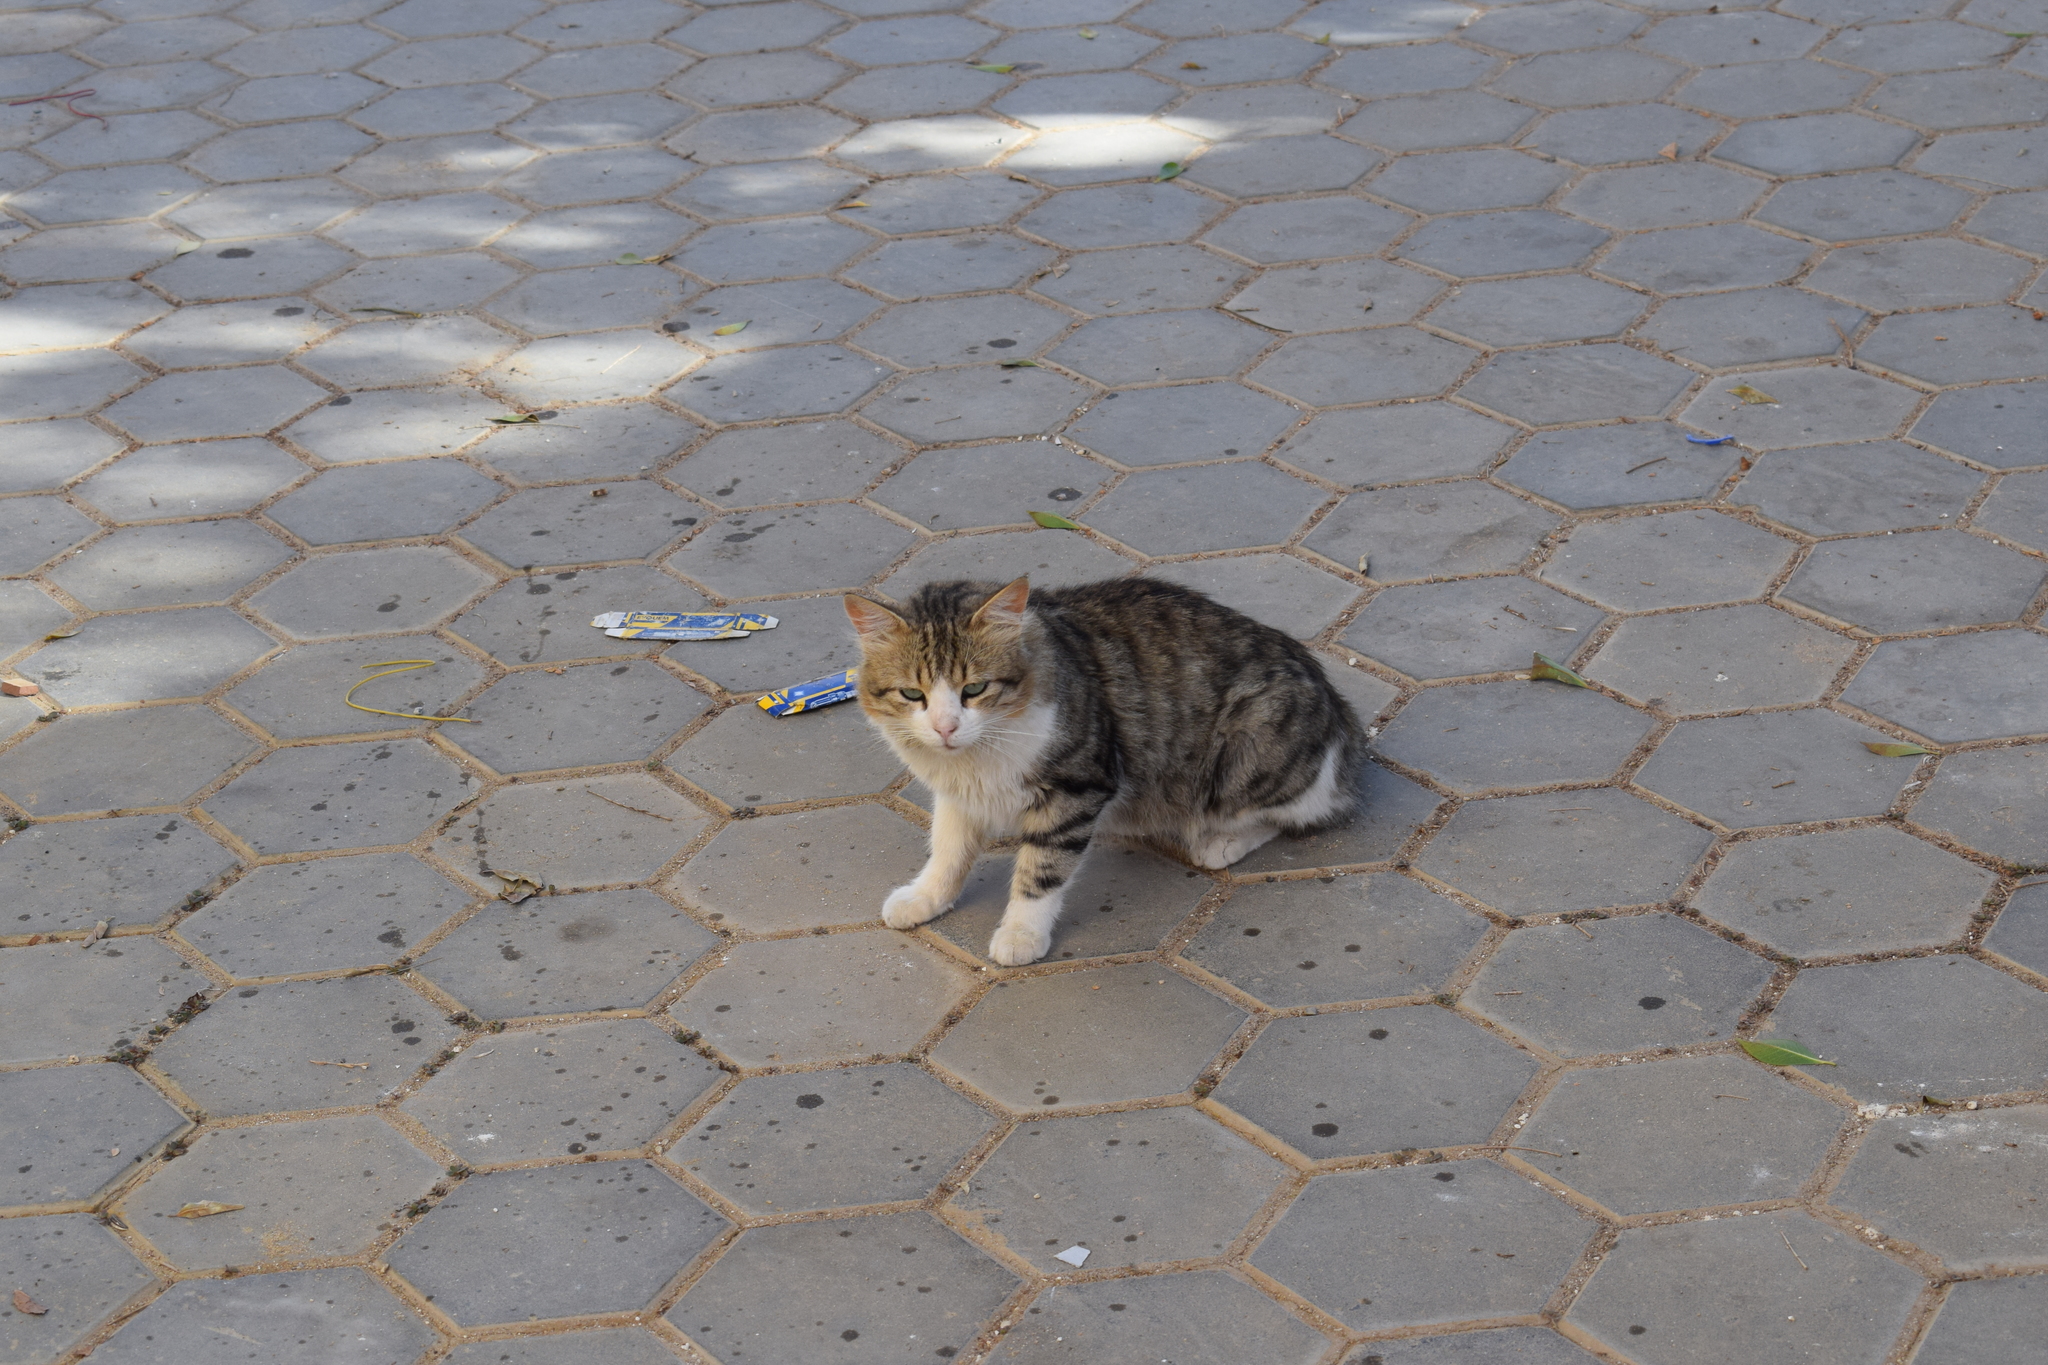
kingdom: Animalia
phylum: Chordata
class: Mammalia
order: Carnivora
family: Felidae
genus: Felis
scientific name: Felis catus
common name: Domestic cat
